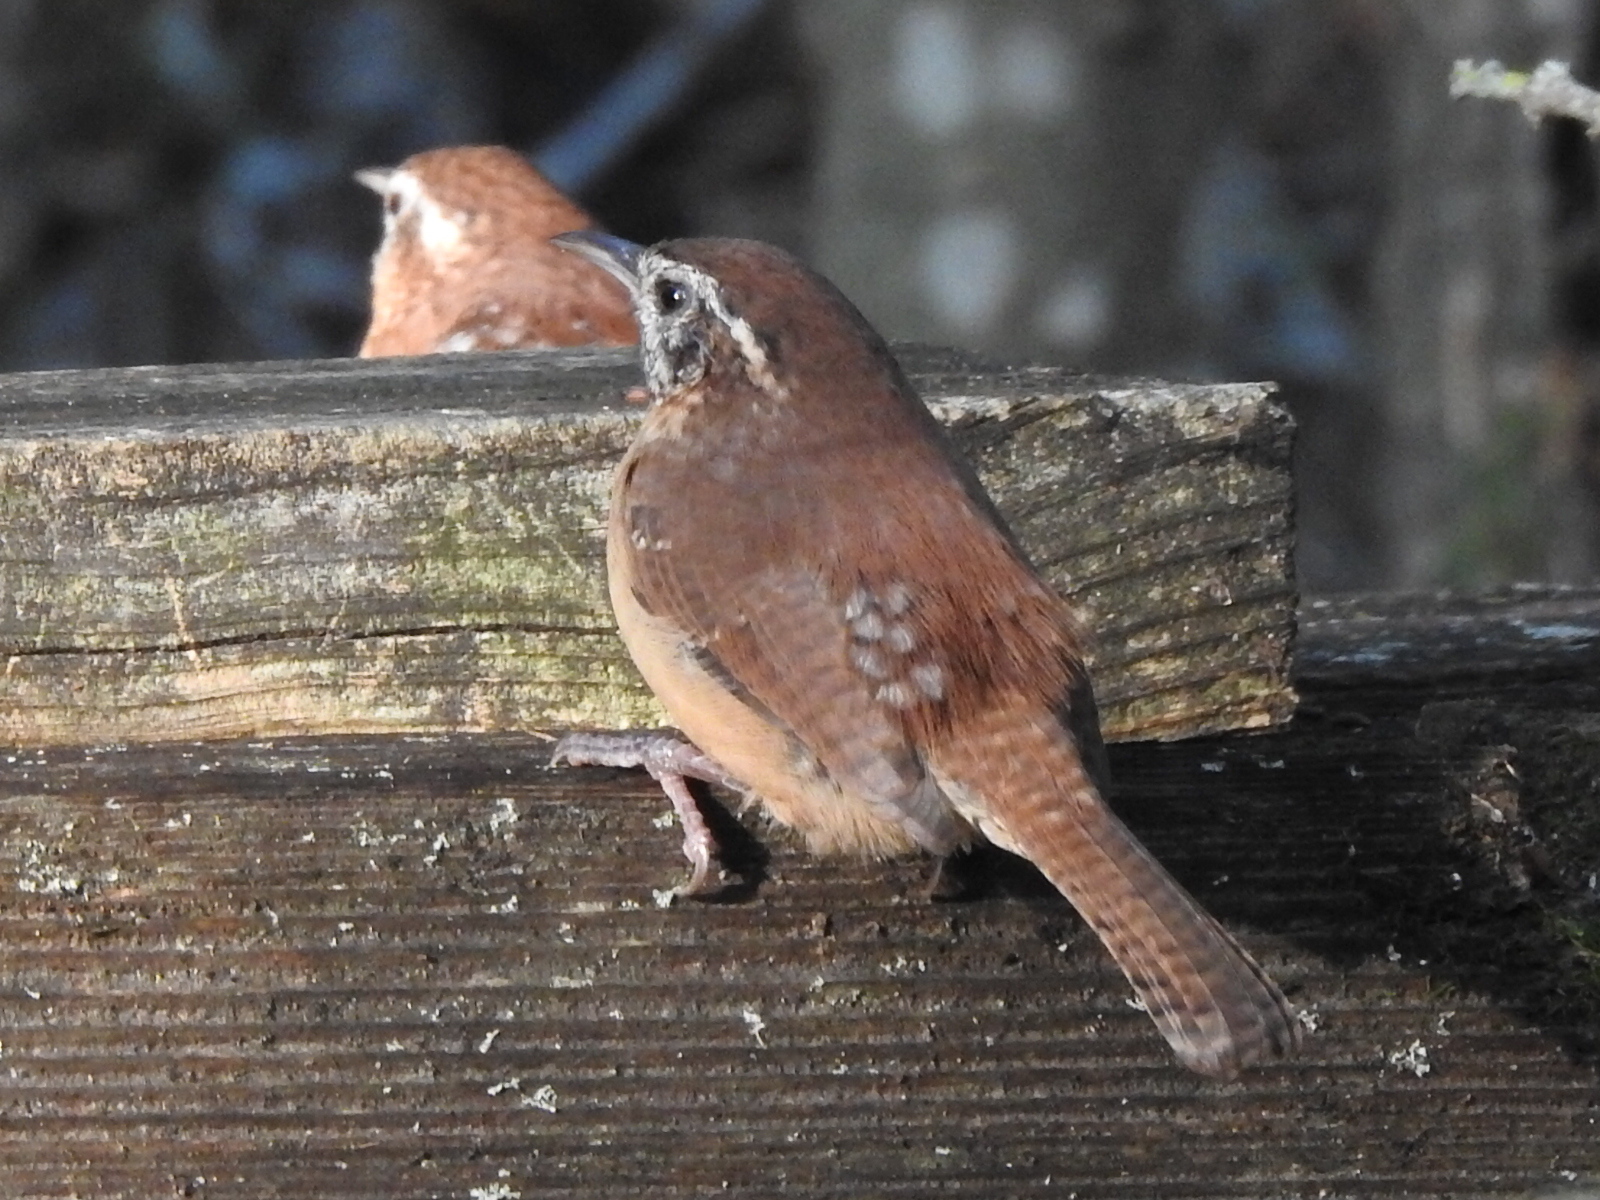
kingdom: Animalia
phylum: Chordata
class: Aves
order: Passeriformes
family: Troglodytidae
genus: Thryothorus
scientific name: Thryothorus ludovicianus
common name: Carolina wren
